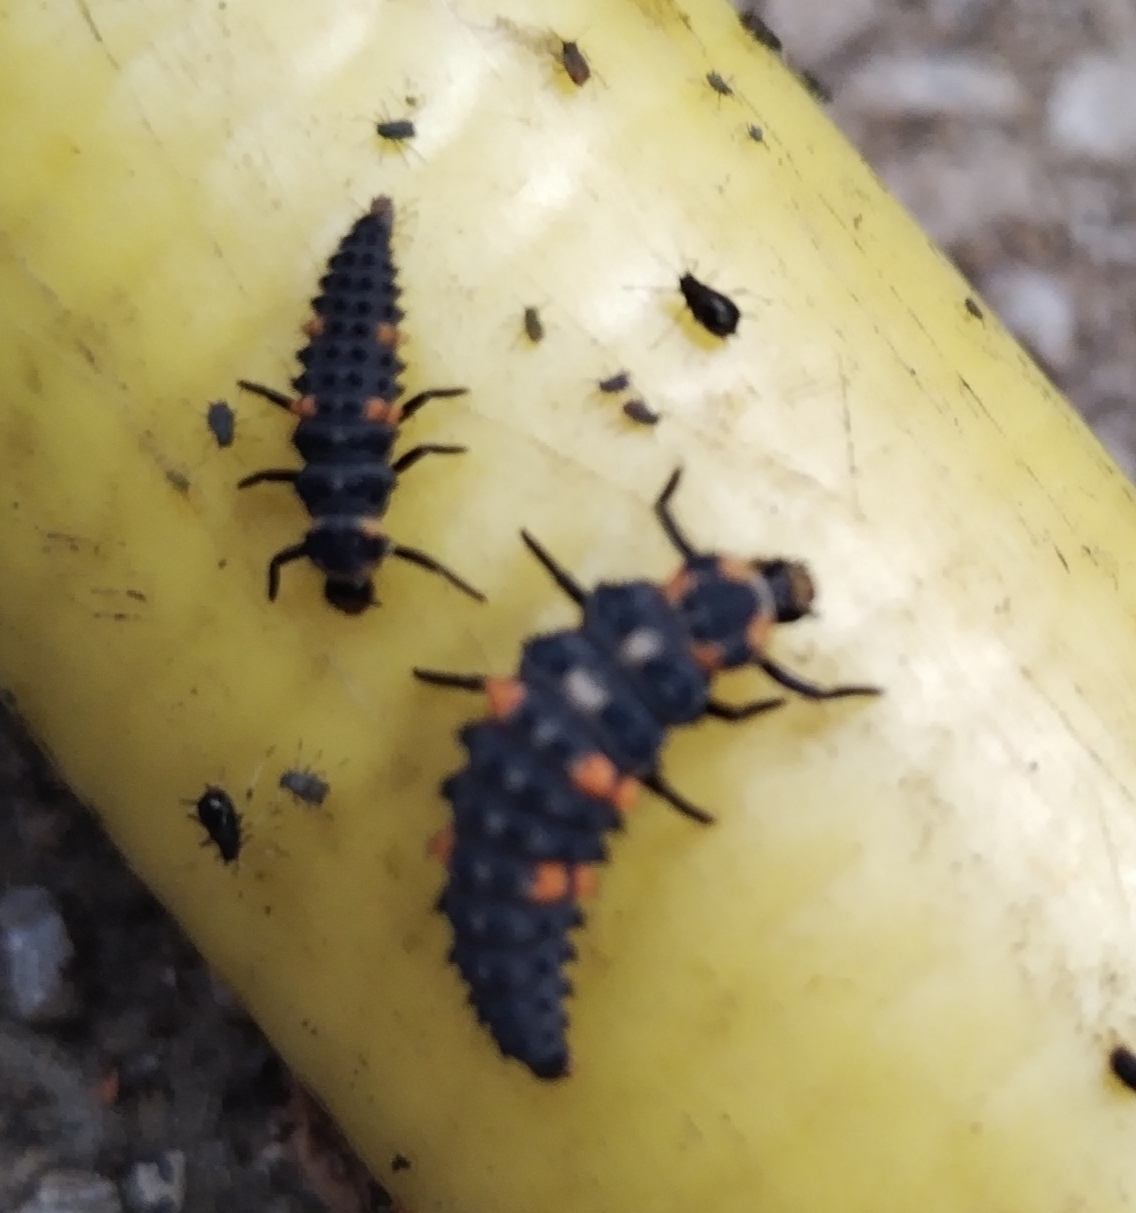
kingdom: Animalia
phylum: Arthropoda
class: Insecta
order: Coleoptera
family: Coccinellidae
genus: Coccinella
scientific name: Coccinella septempunctata
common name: Sevenspotted lady beetle
